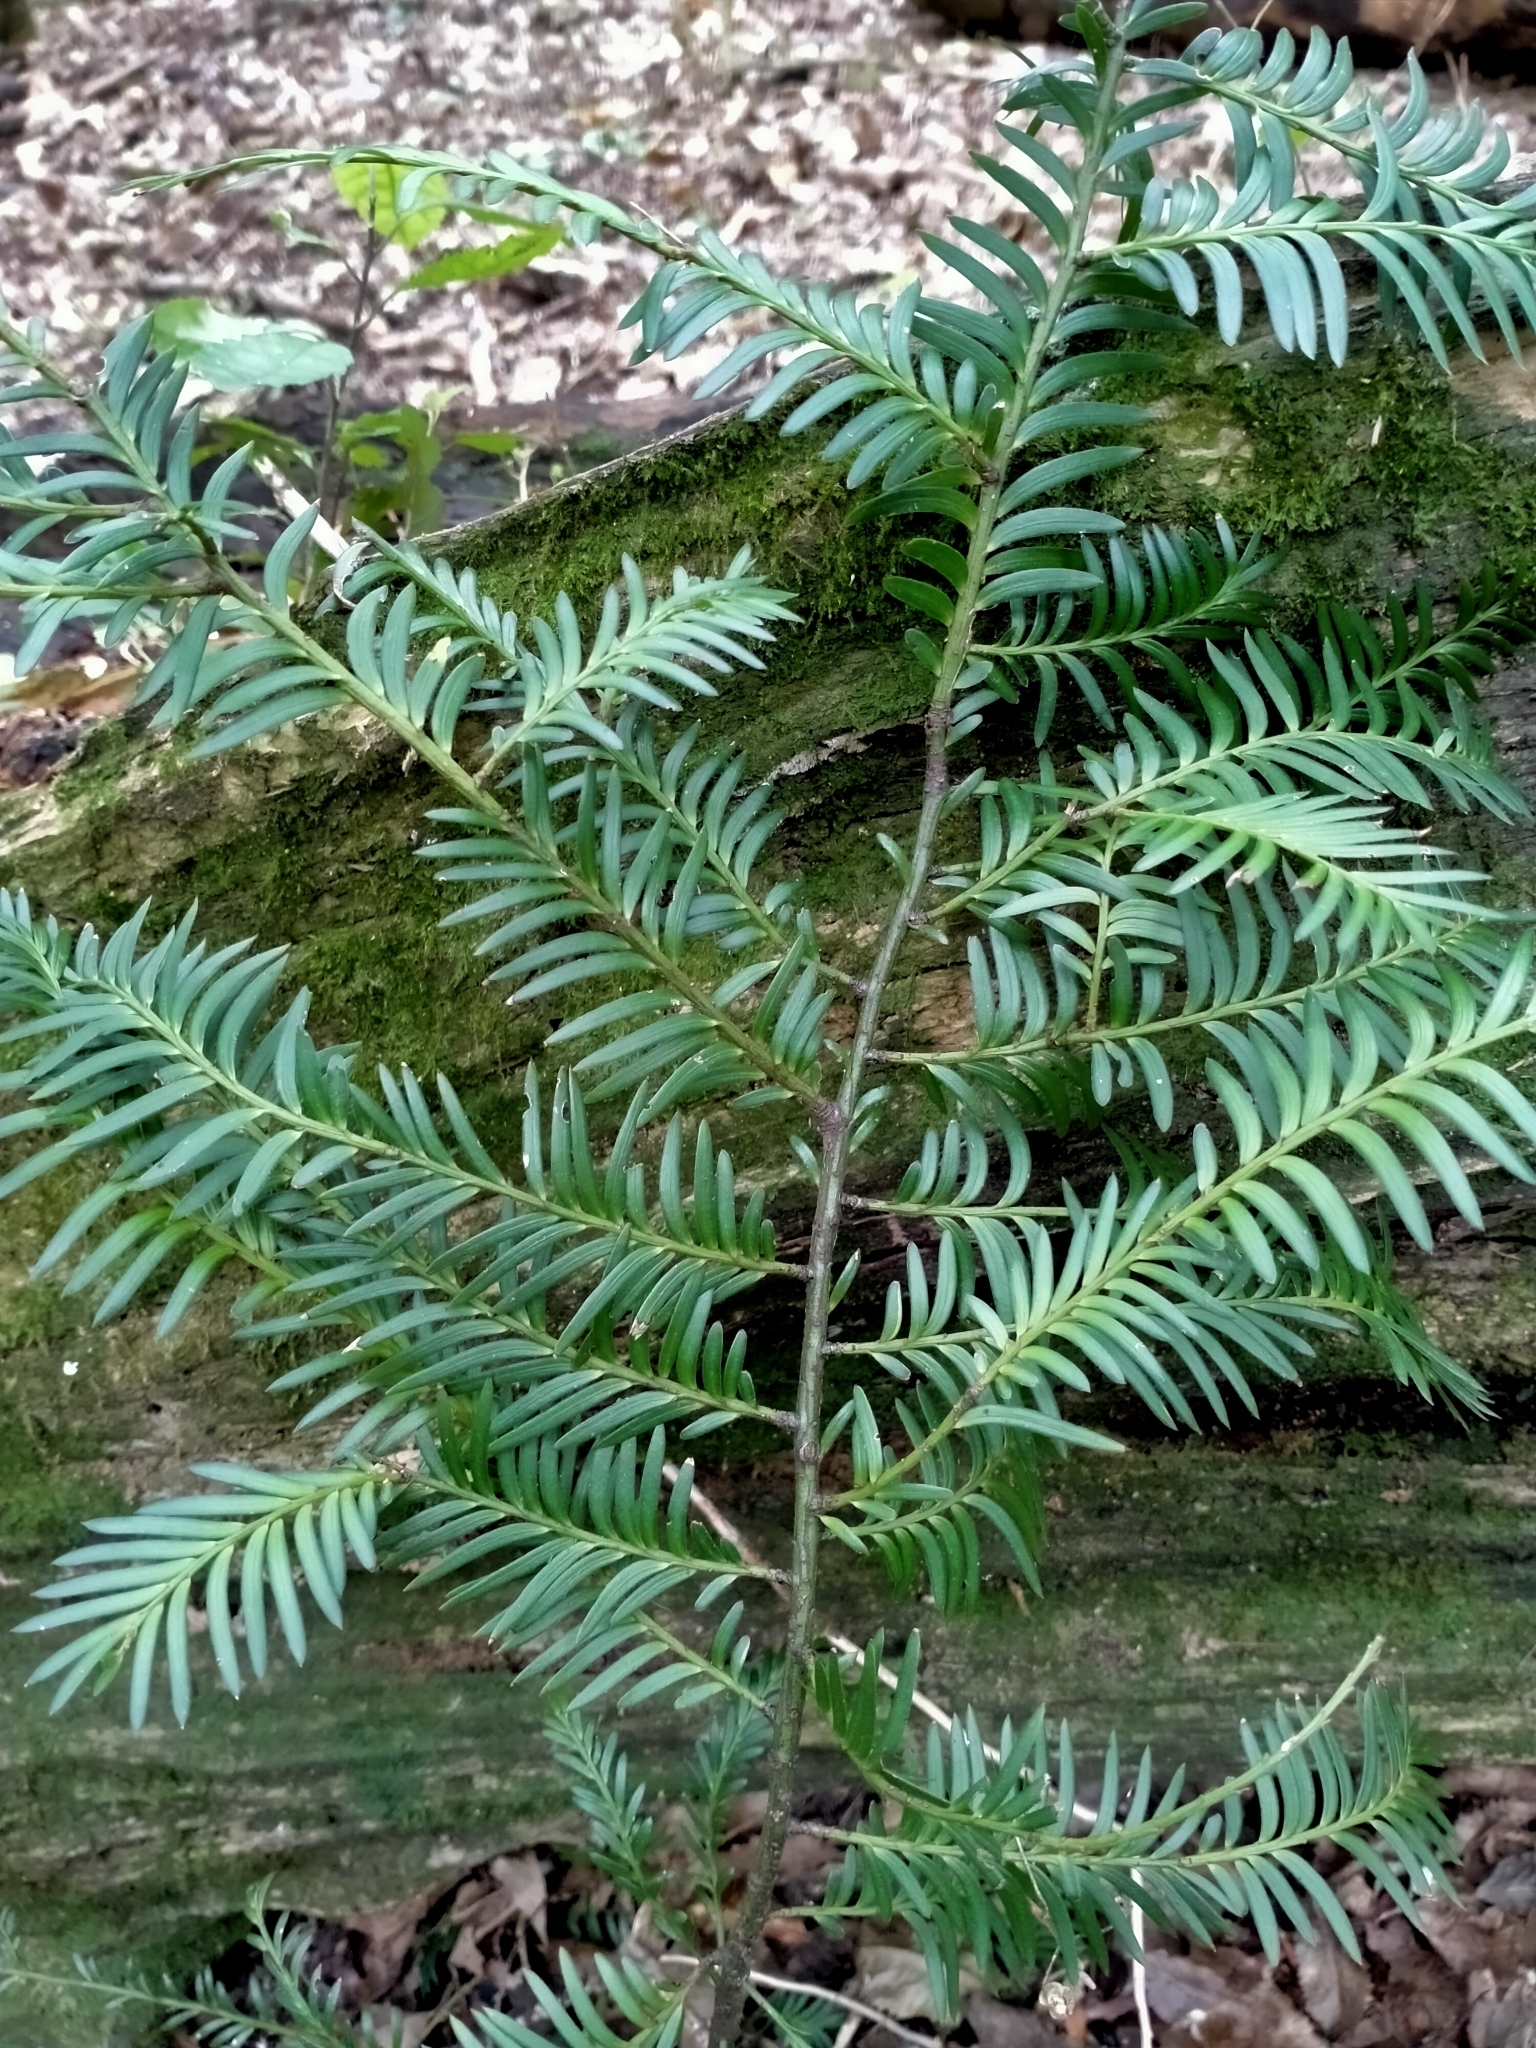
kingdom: Plantae
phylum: Tracheophyta
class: Pinopsida
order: Pinales
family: Podocarpaceae
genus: Prumnopitys
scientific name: Prumnopitys ferruginea
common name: Brown pine
